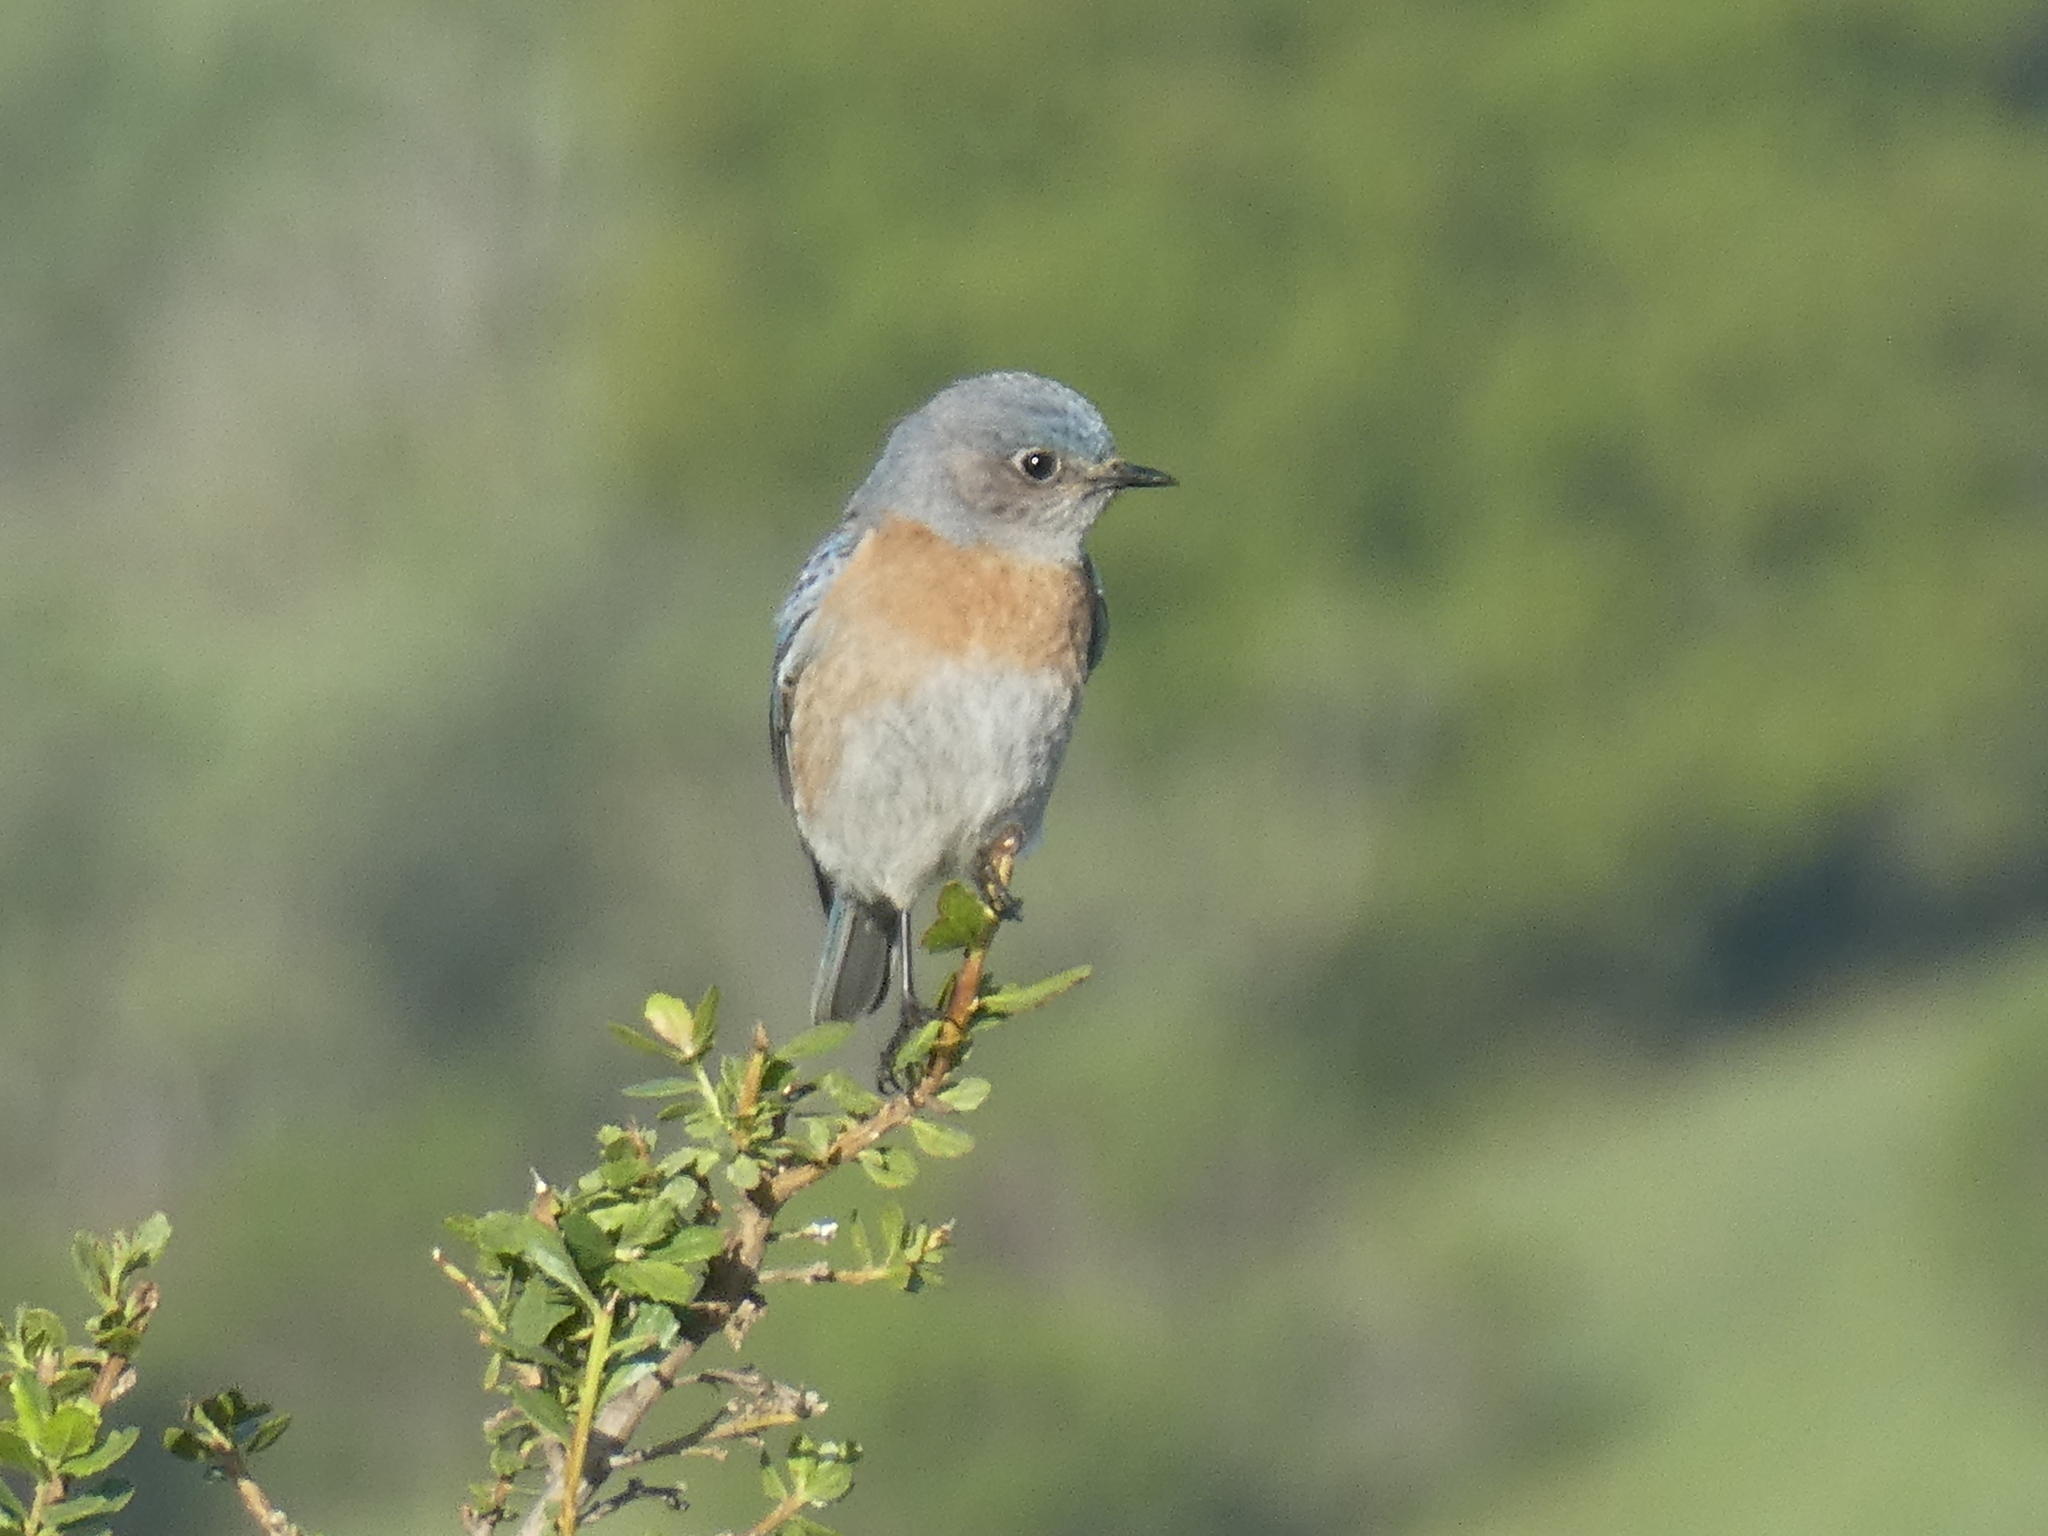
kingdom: Animalia
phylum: Chordata
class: Aves
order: Passeriformes
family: Turdidae
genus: Sialia
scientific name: Sialia mexicana
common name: Western bluebird
